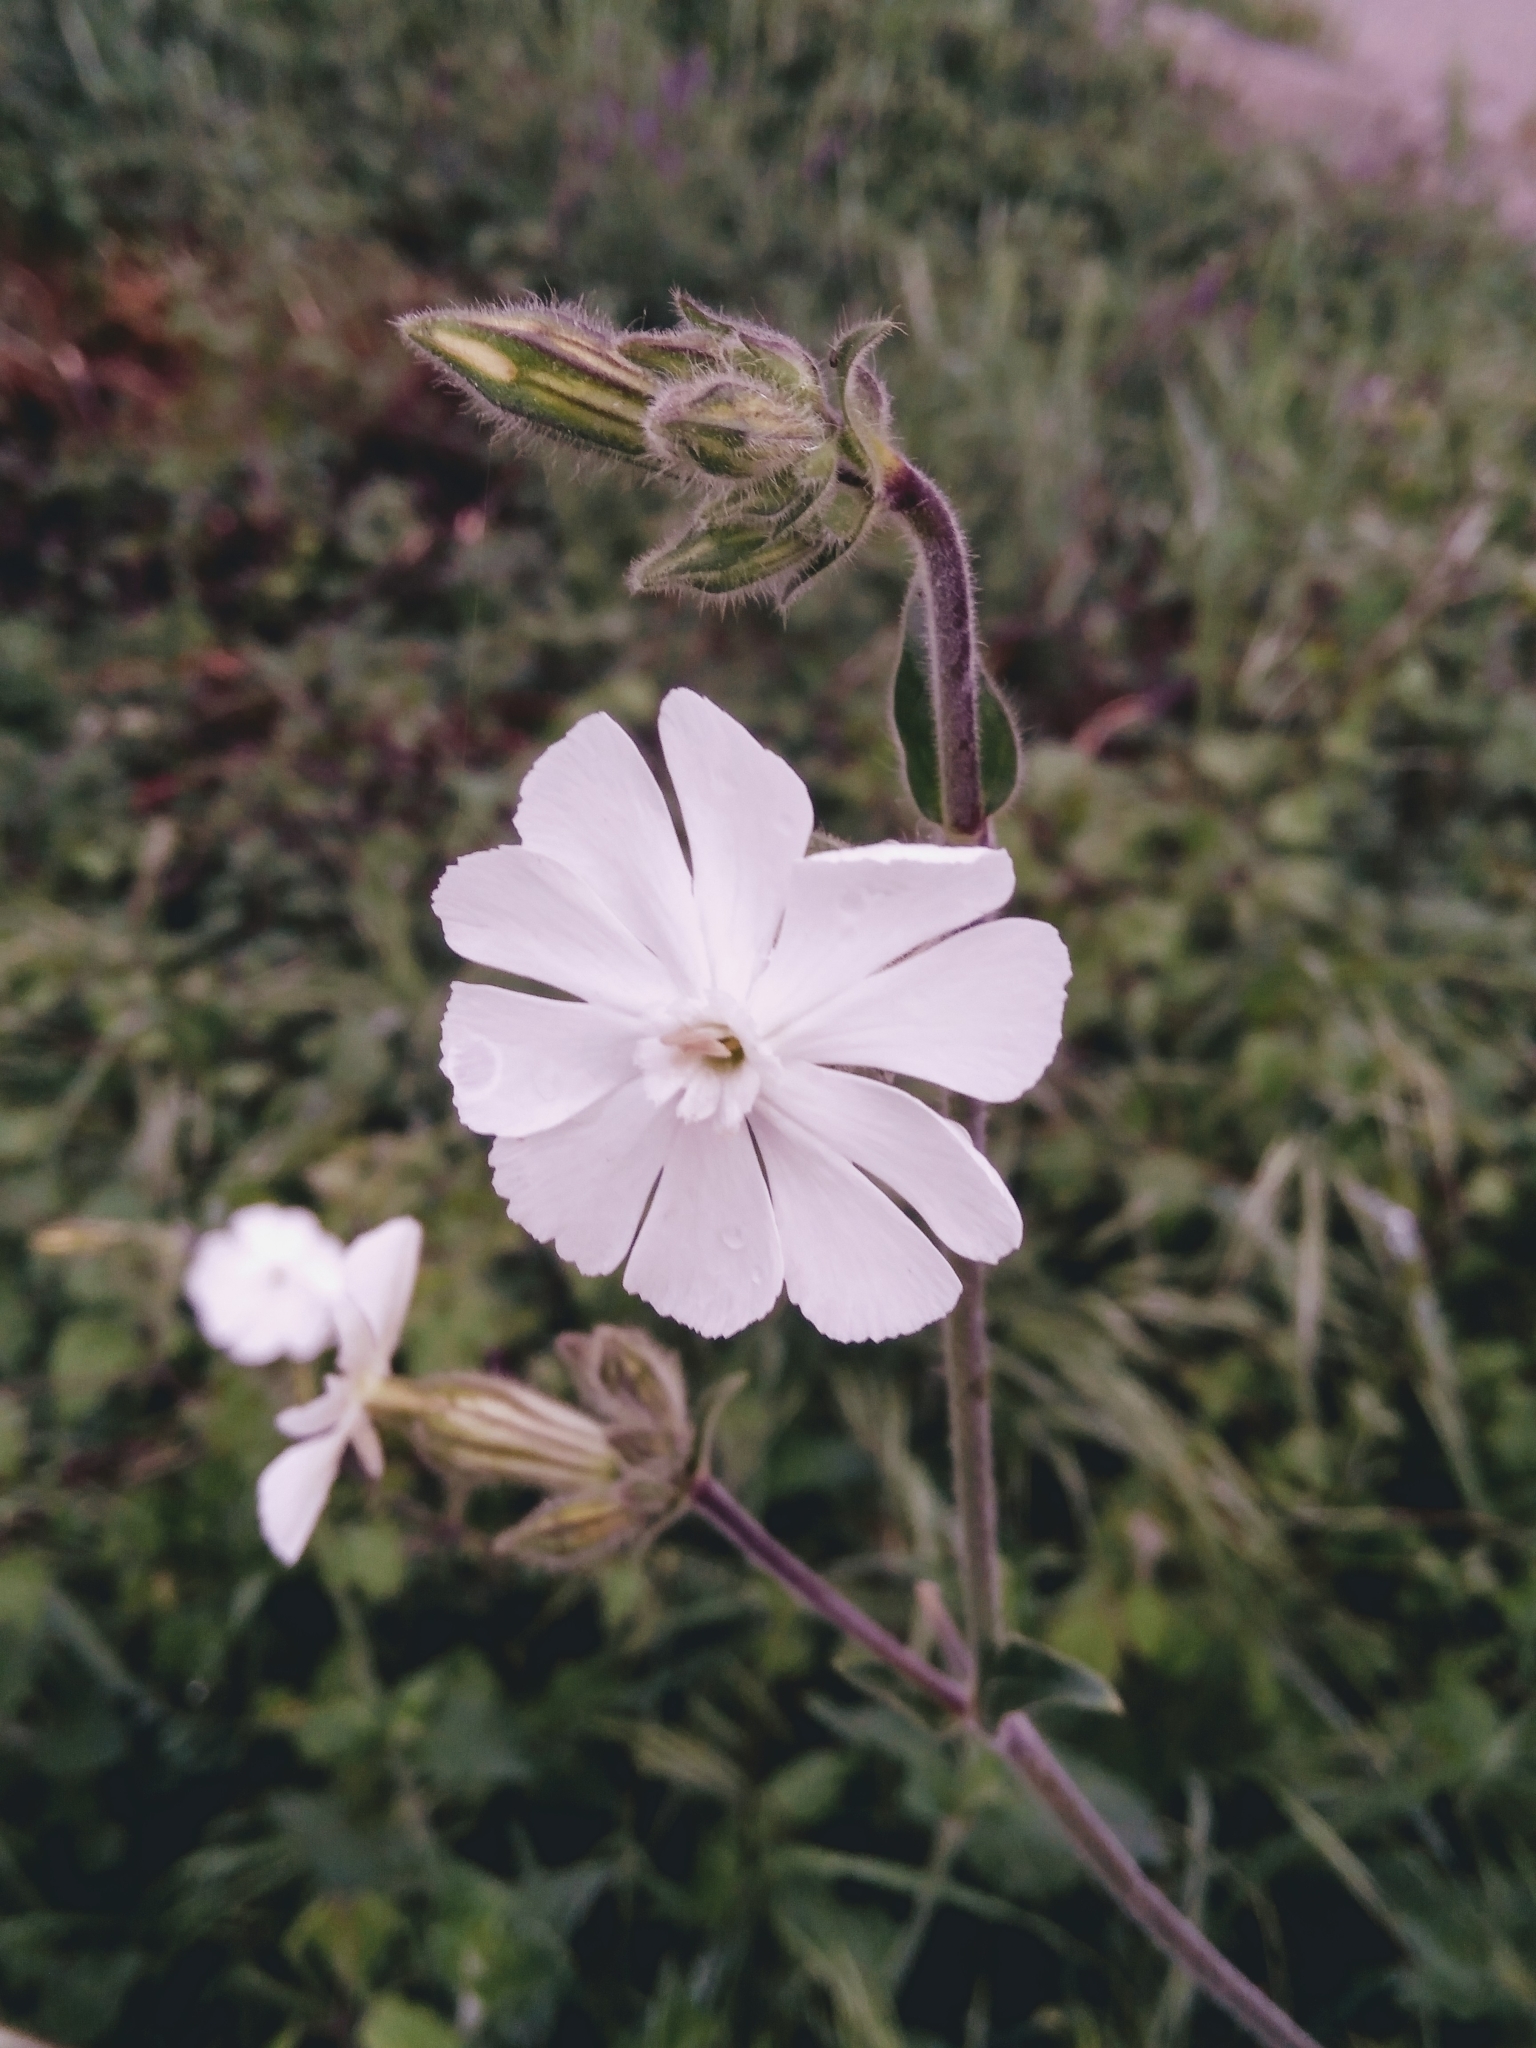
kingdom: Plantae
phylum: Tracheophyta
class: Magnoliopsida
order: Caryophyllales
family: Caryophyllaceae
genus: Silene
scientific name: Silene latifolia
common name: White campion
